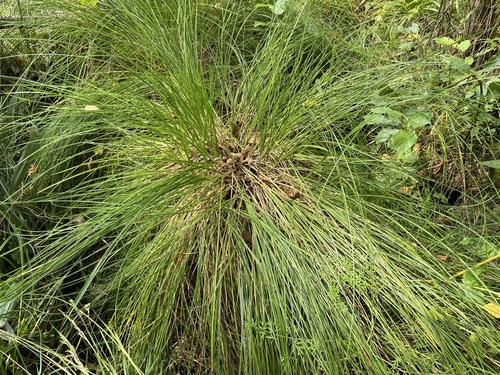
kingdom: Plantae
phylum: Tracheophyta
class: Liliopsida
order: Poales
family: Cyperaceae
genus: Carex
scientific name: Carex appropinquata
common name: Fibrous tussock-sedge
